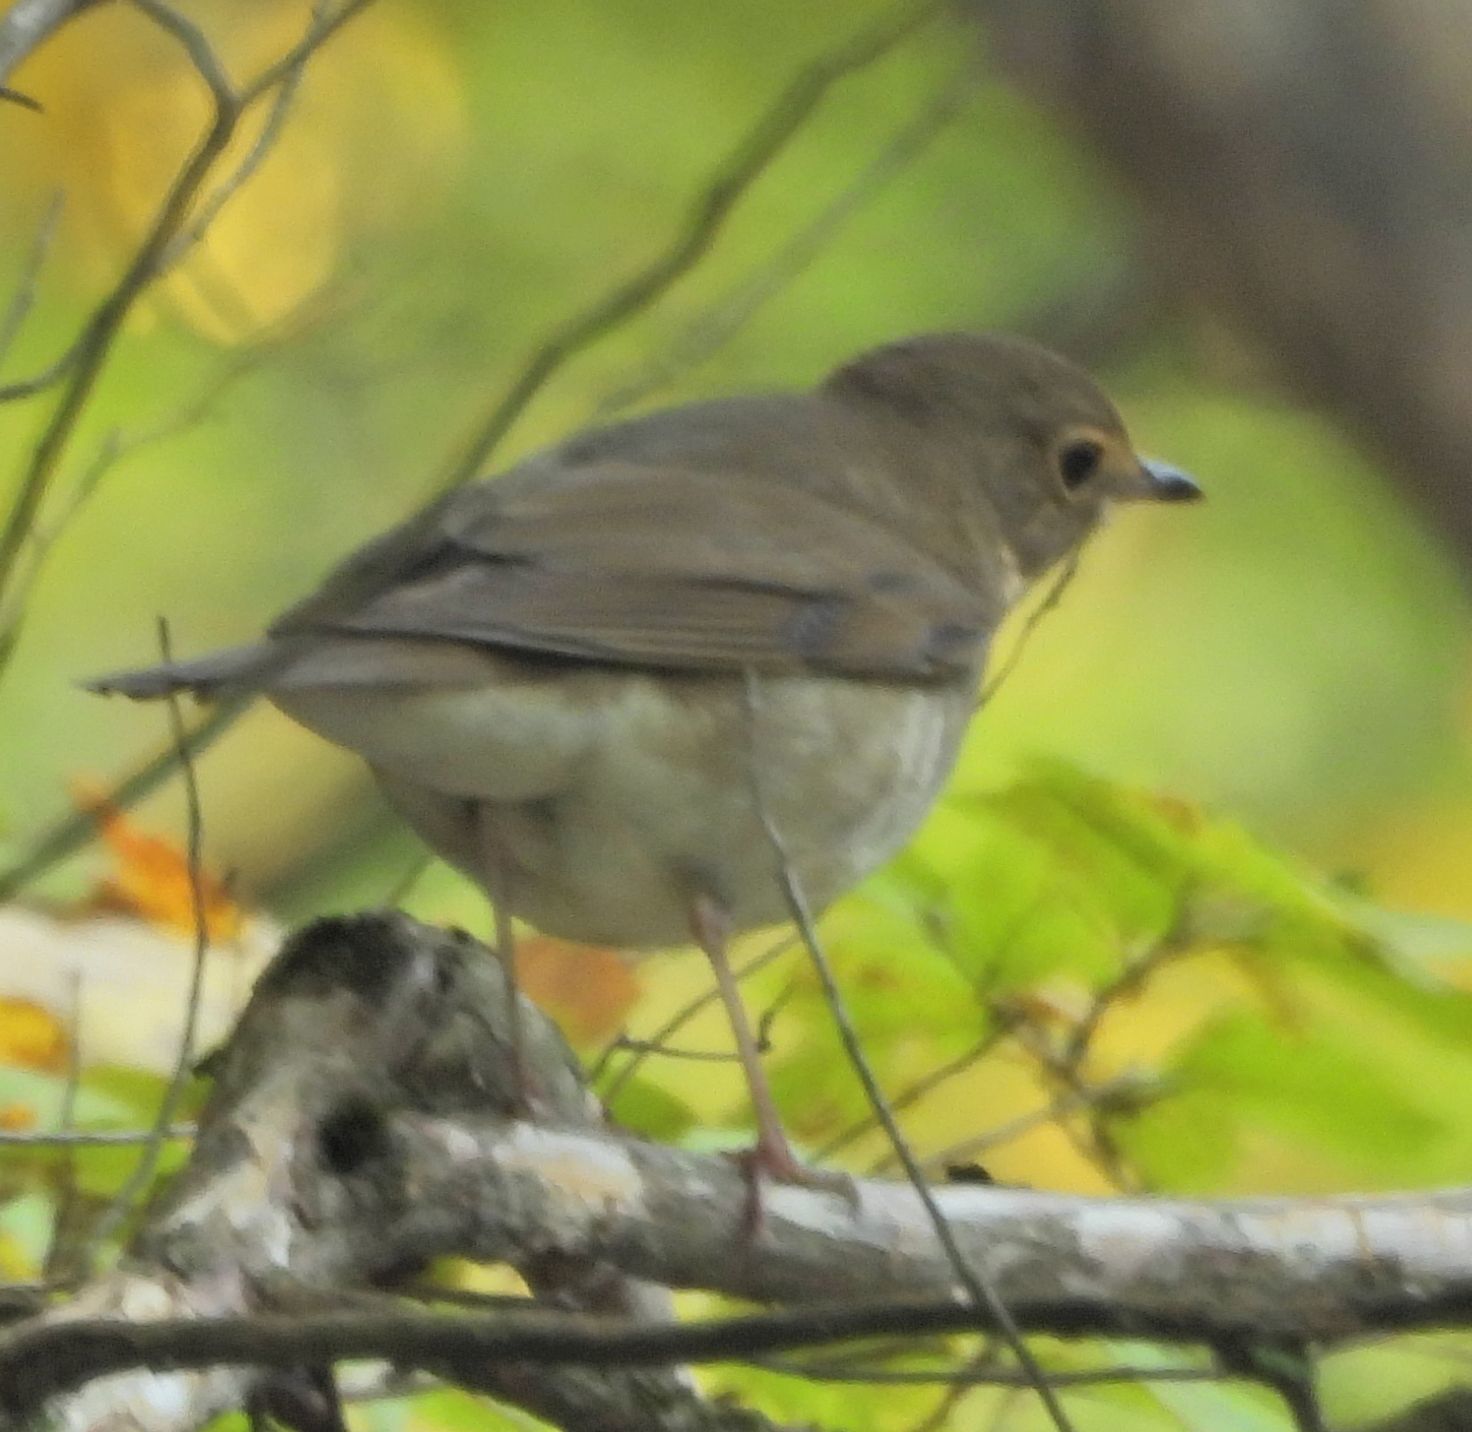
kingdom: Animalia
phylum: Chordata
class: Aves
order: Passeriformes
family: Turdidae
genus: Catharus
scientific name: Catharus ustulatus
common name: Swainson's thrush
